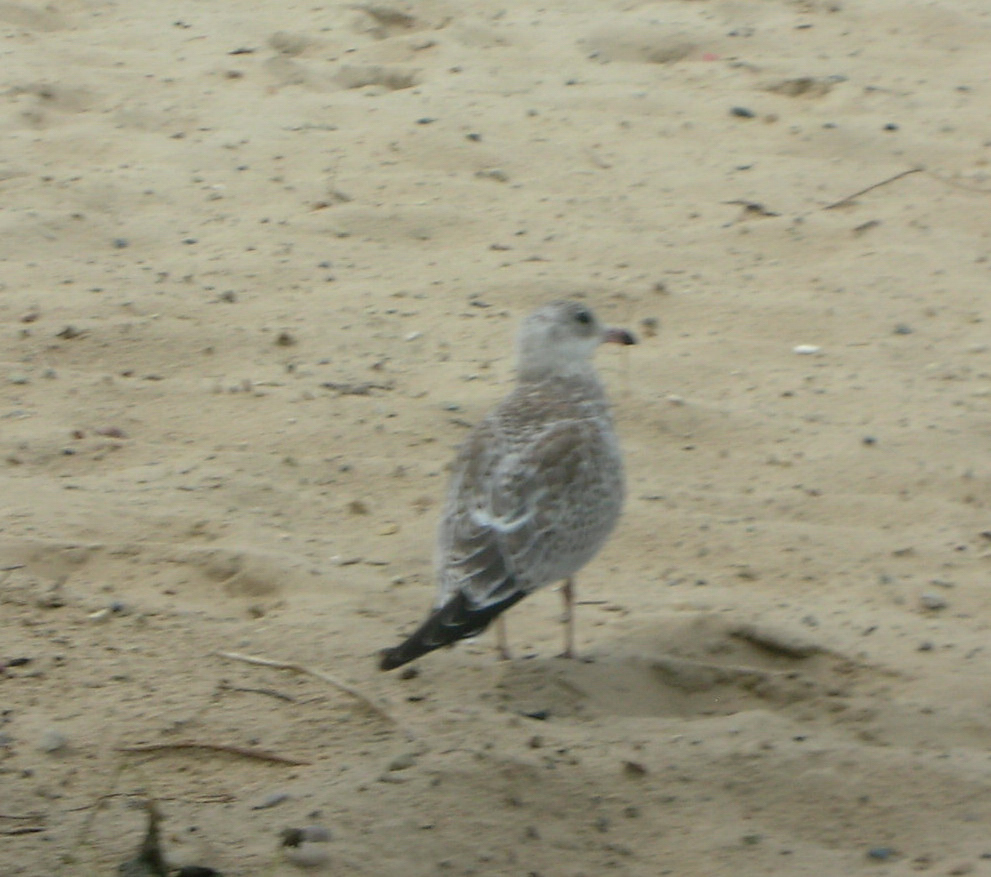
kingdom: Animalia
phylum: Chordata
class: Aves
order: Charadriiformes
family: Laridae
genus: Larus
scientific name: Larus delawarensis
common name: Ring-billed gull
